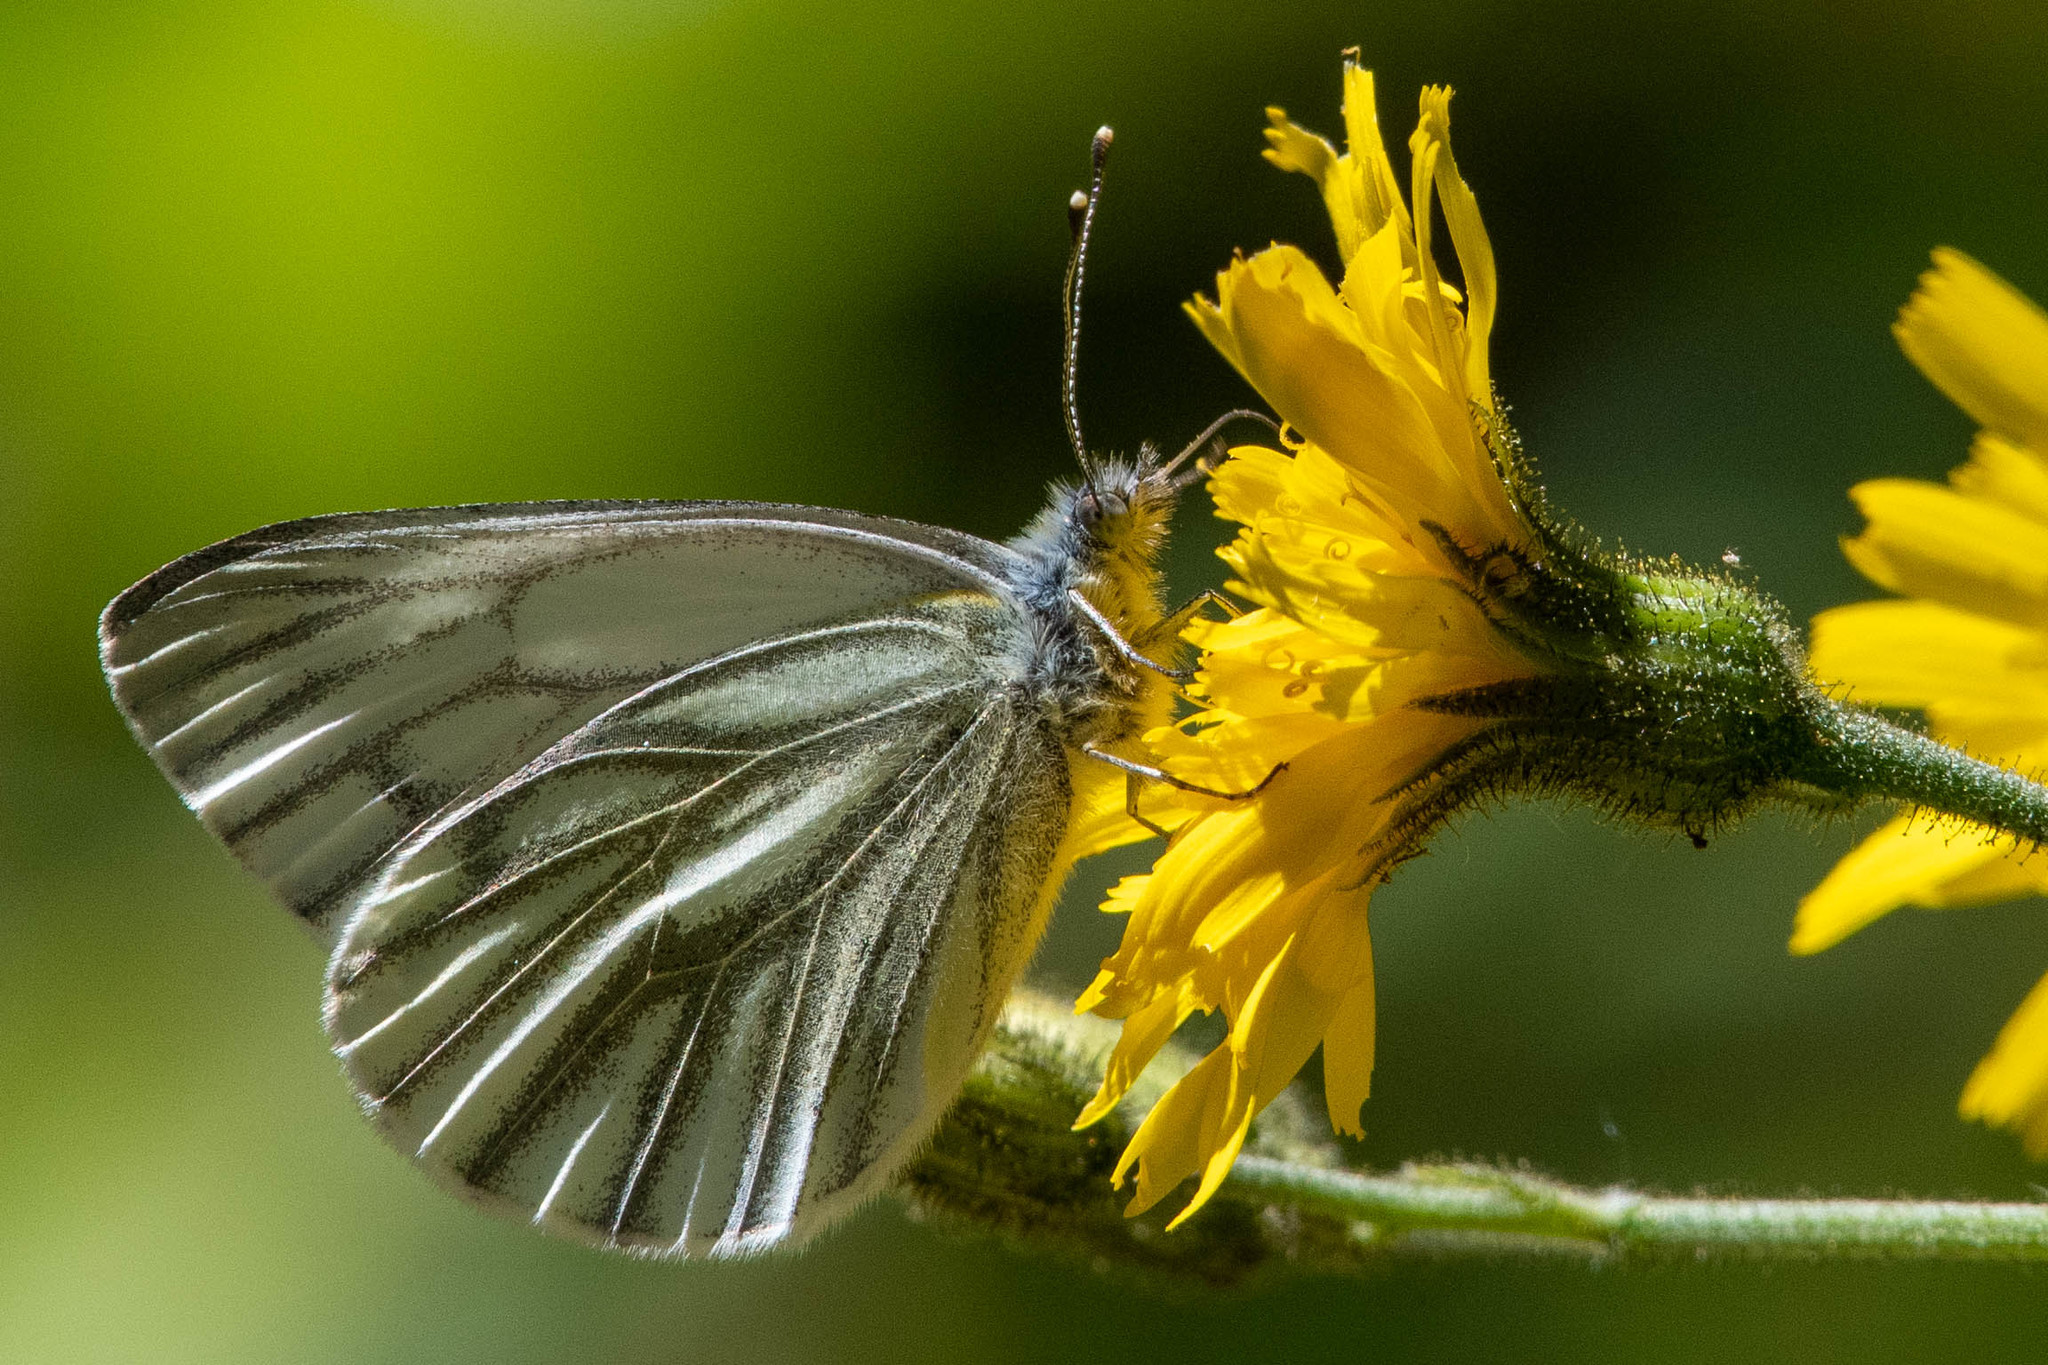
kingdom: Animalia
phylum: Arthropoda
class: Insecta
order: Lepidoptera
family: Pieridae
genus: Pieris
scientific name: Pieris napi
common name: Green-veined white
